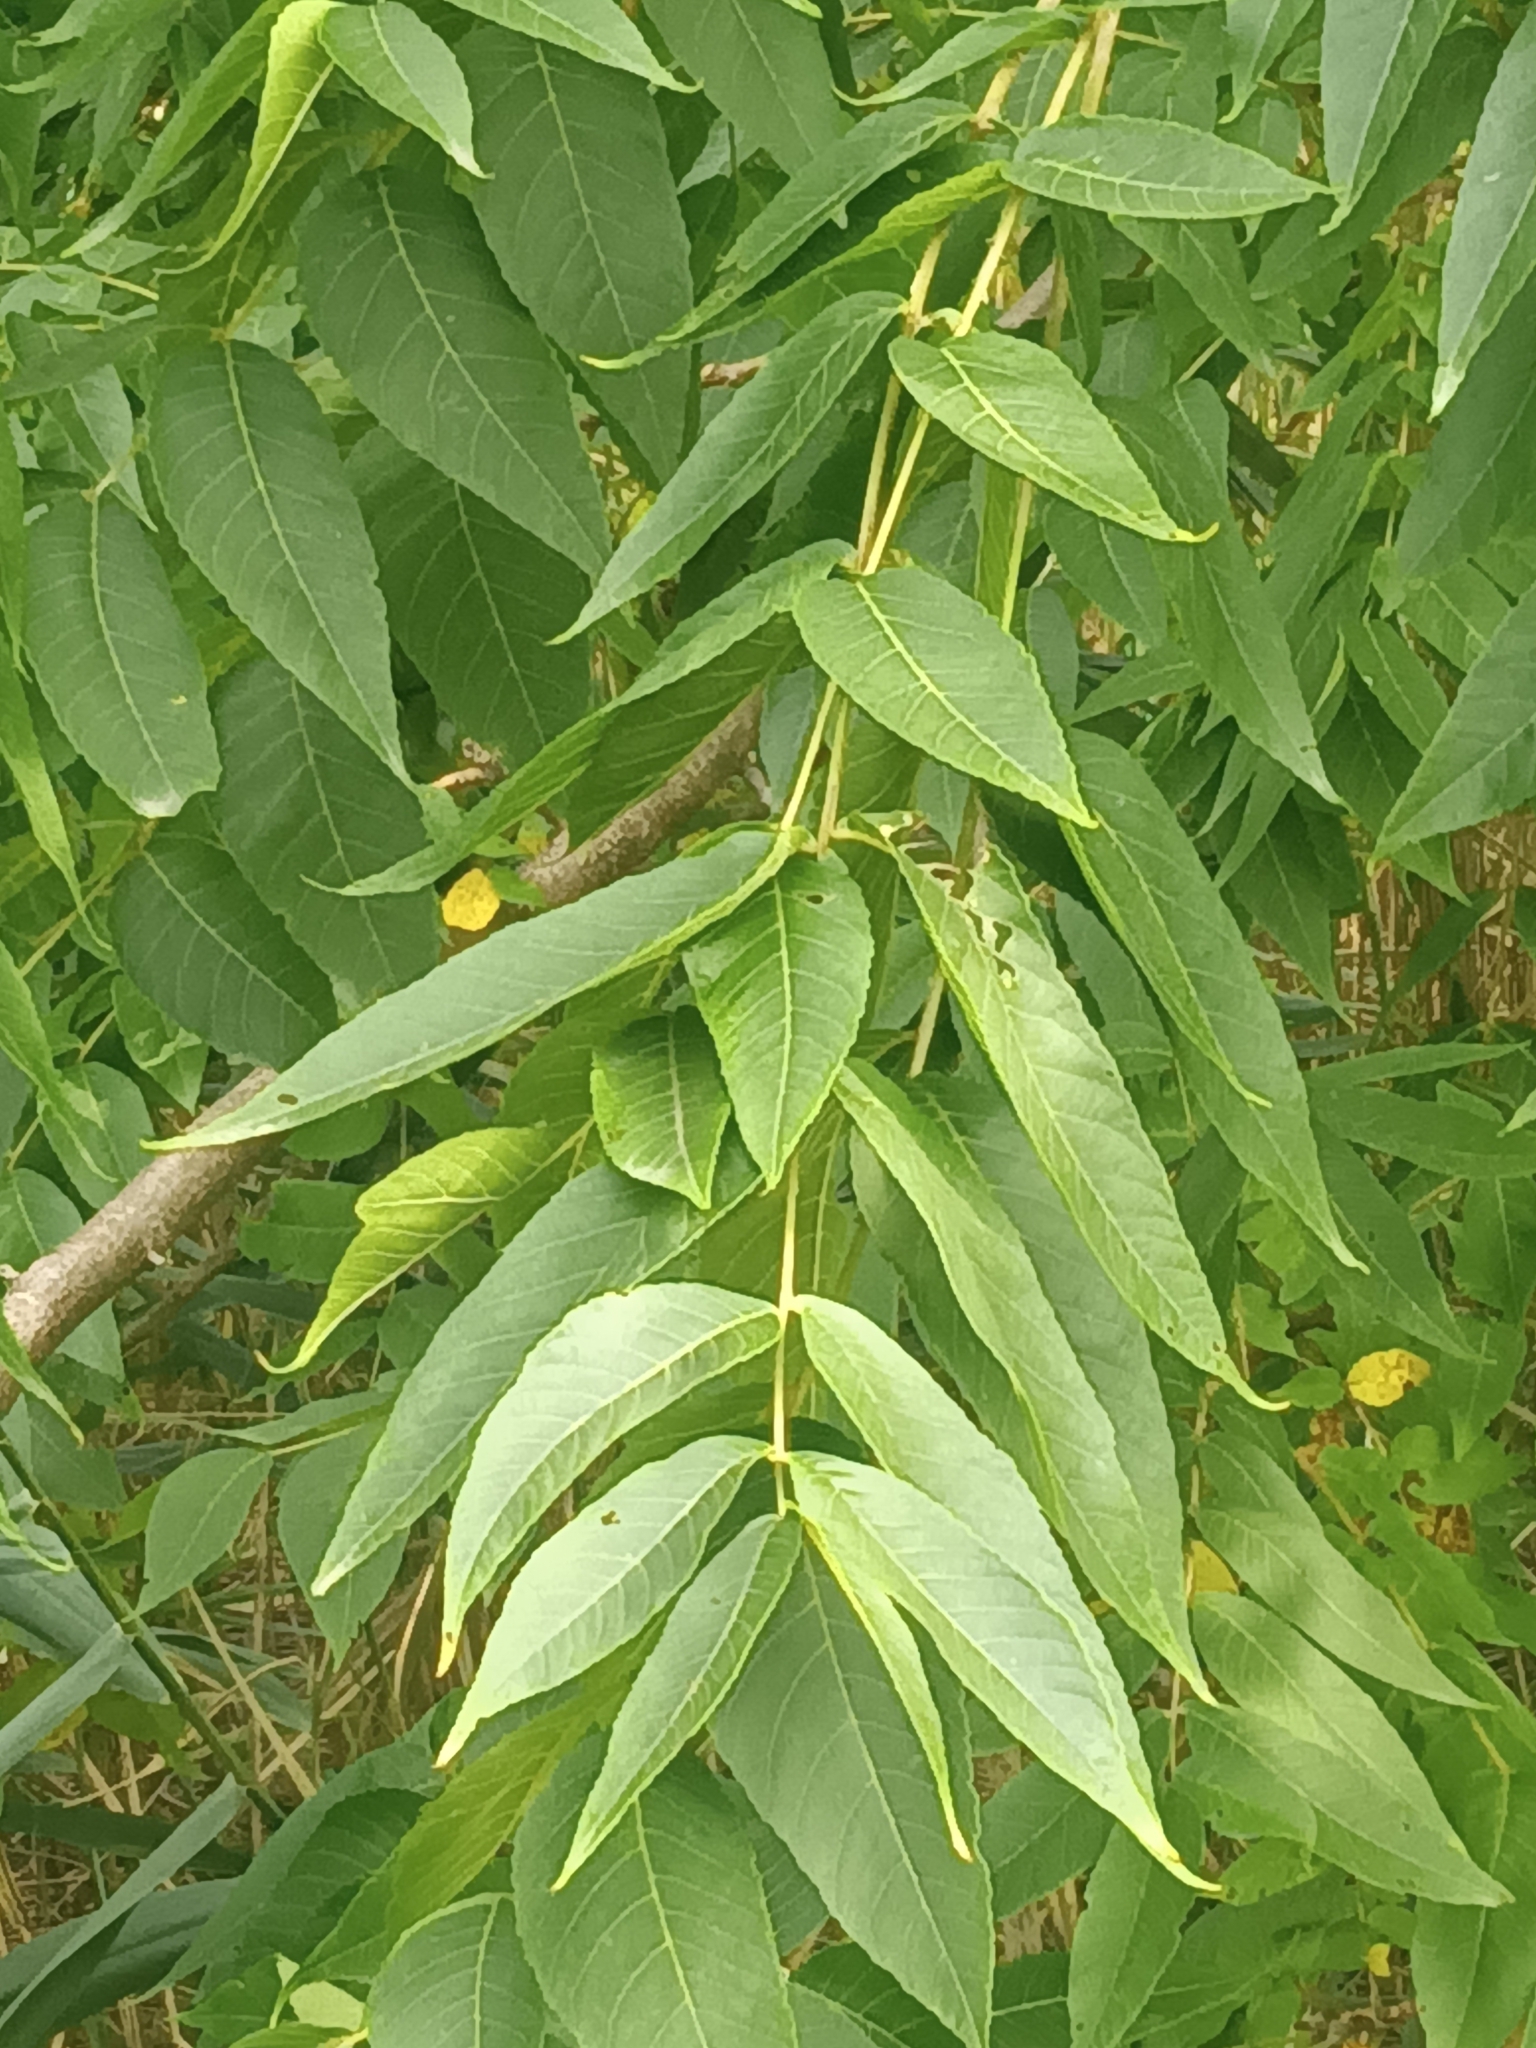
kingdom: Plantae
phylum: Tracheophyta
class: Magnoliopsida
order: Fagales
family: Juglandaceae
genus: Juglans
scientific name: Juglans nigra
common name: Black walnut
